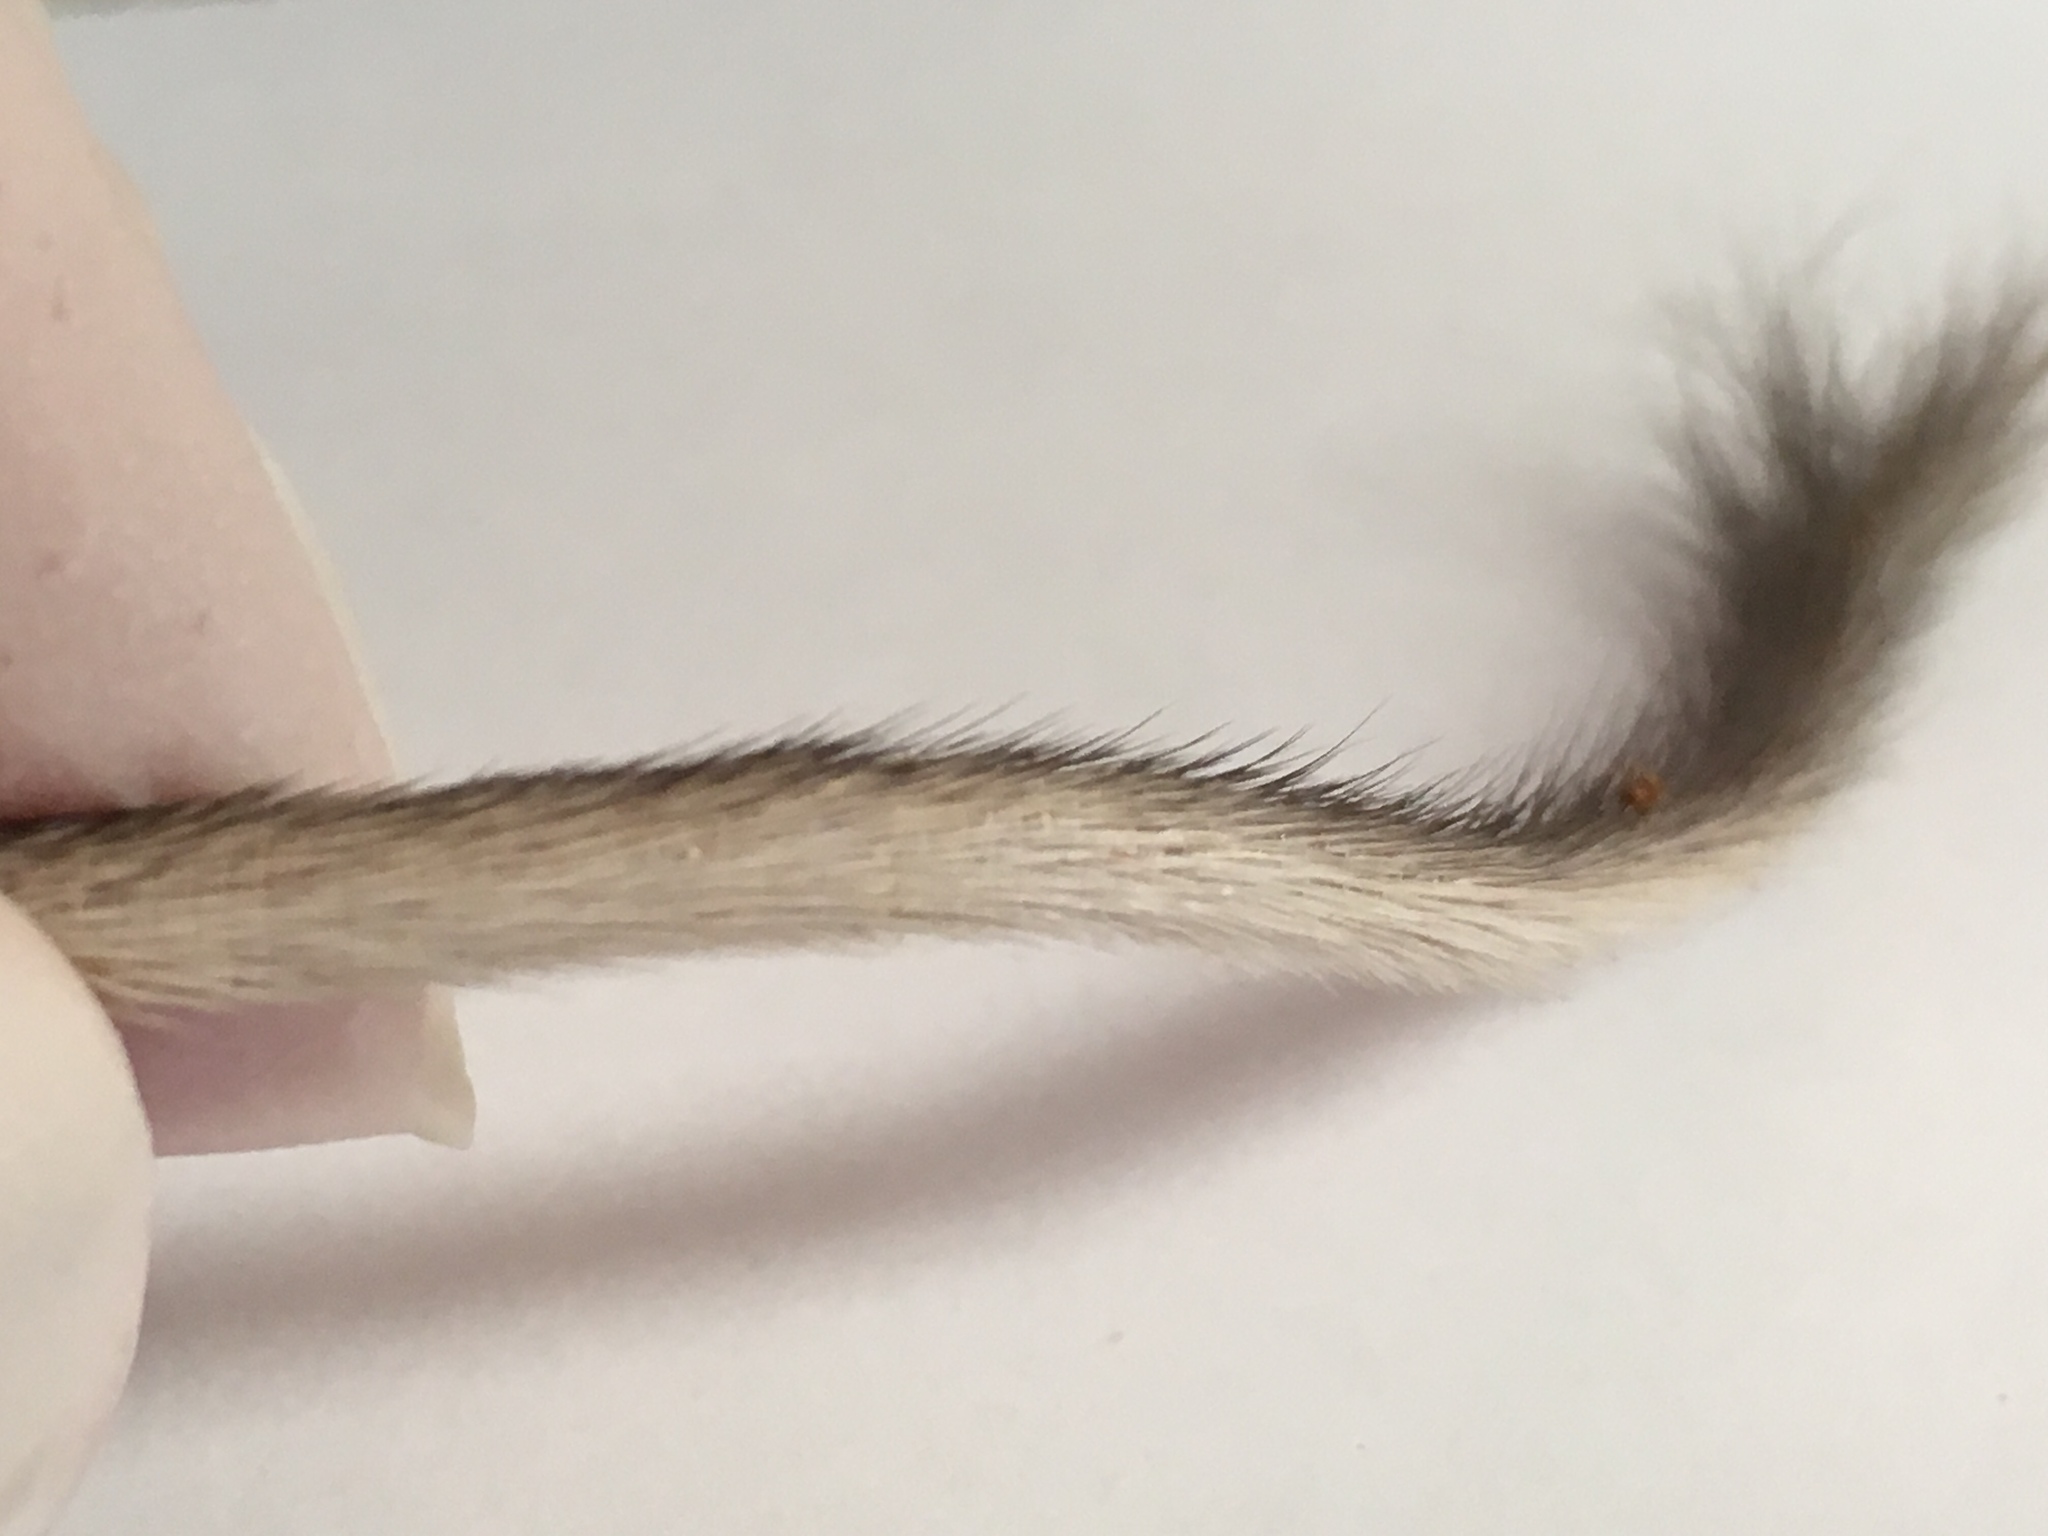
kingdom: Animalia
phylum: Chordata
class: Mammalia
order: Rodentia
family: Heteromyidae
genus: Chaetodipus
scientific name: Chaetodipus formosus
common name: Long-tailed pocket mouse
